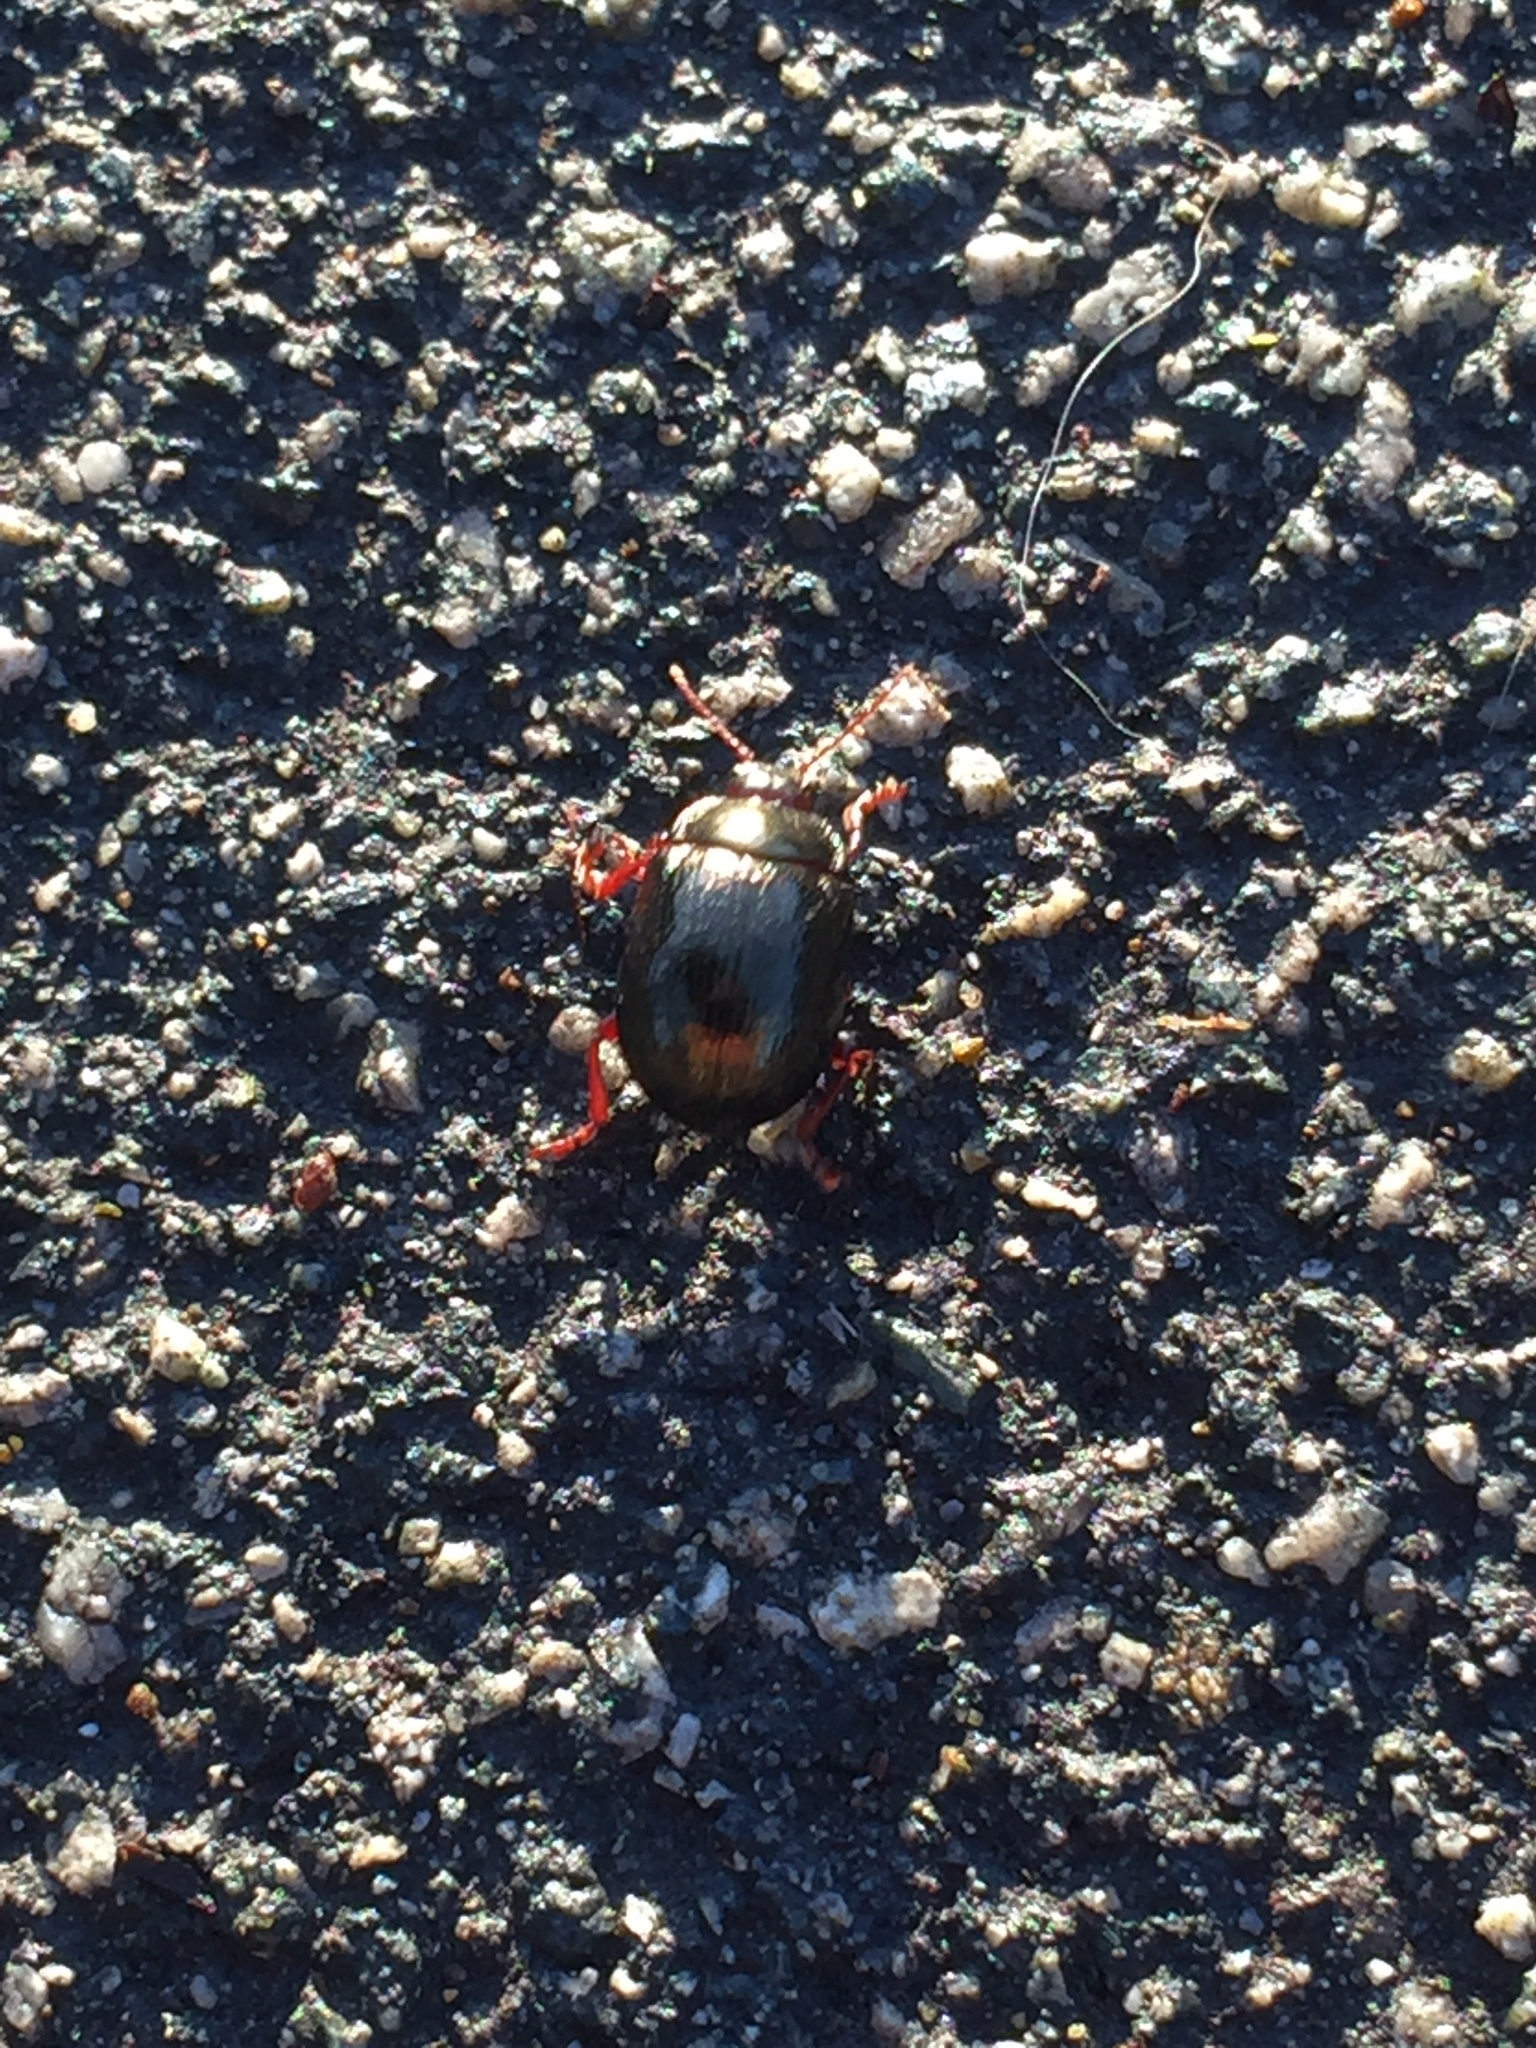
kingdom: Animalia
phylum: Arthropoda
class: Insecta
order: Coleoptera
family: Chrysomelidae
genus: Chrysolina
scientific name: Chrysolina bankii
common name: Leaf beetle
